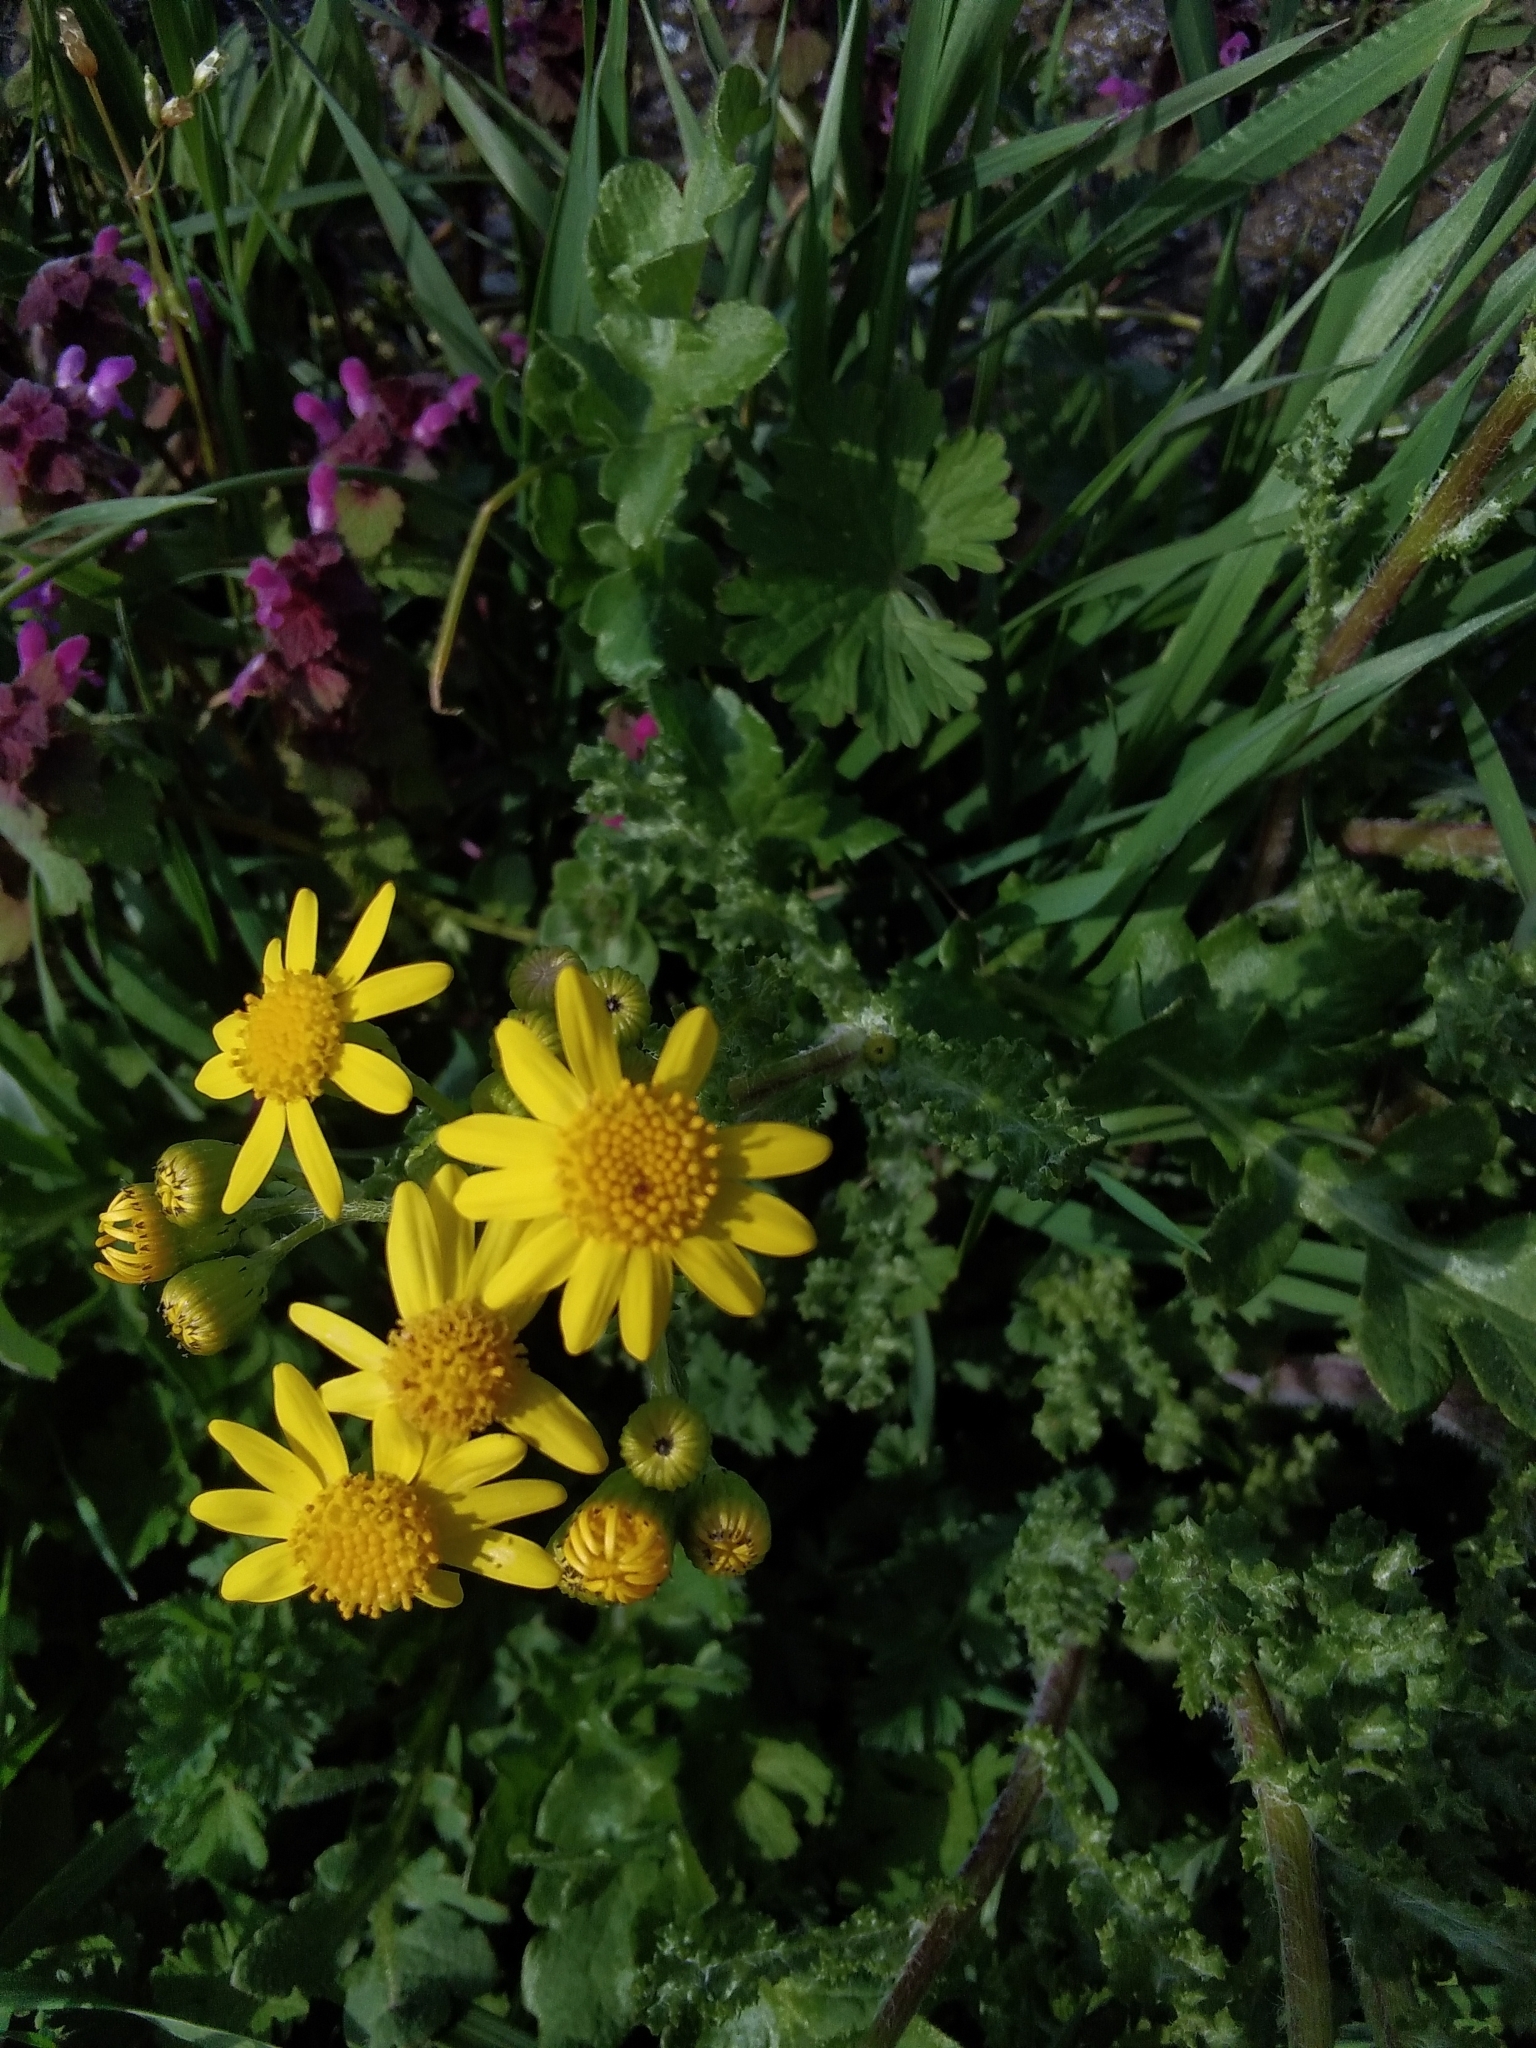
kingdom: Plantae
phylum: Tracheophyta
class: Magnoliopsida
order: Asterales
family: Asteraceae
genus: Senecio
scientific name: Senecio vernalis
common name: Eastern groundsel
